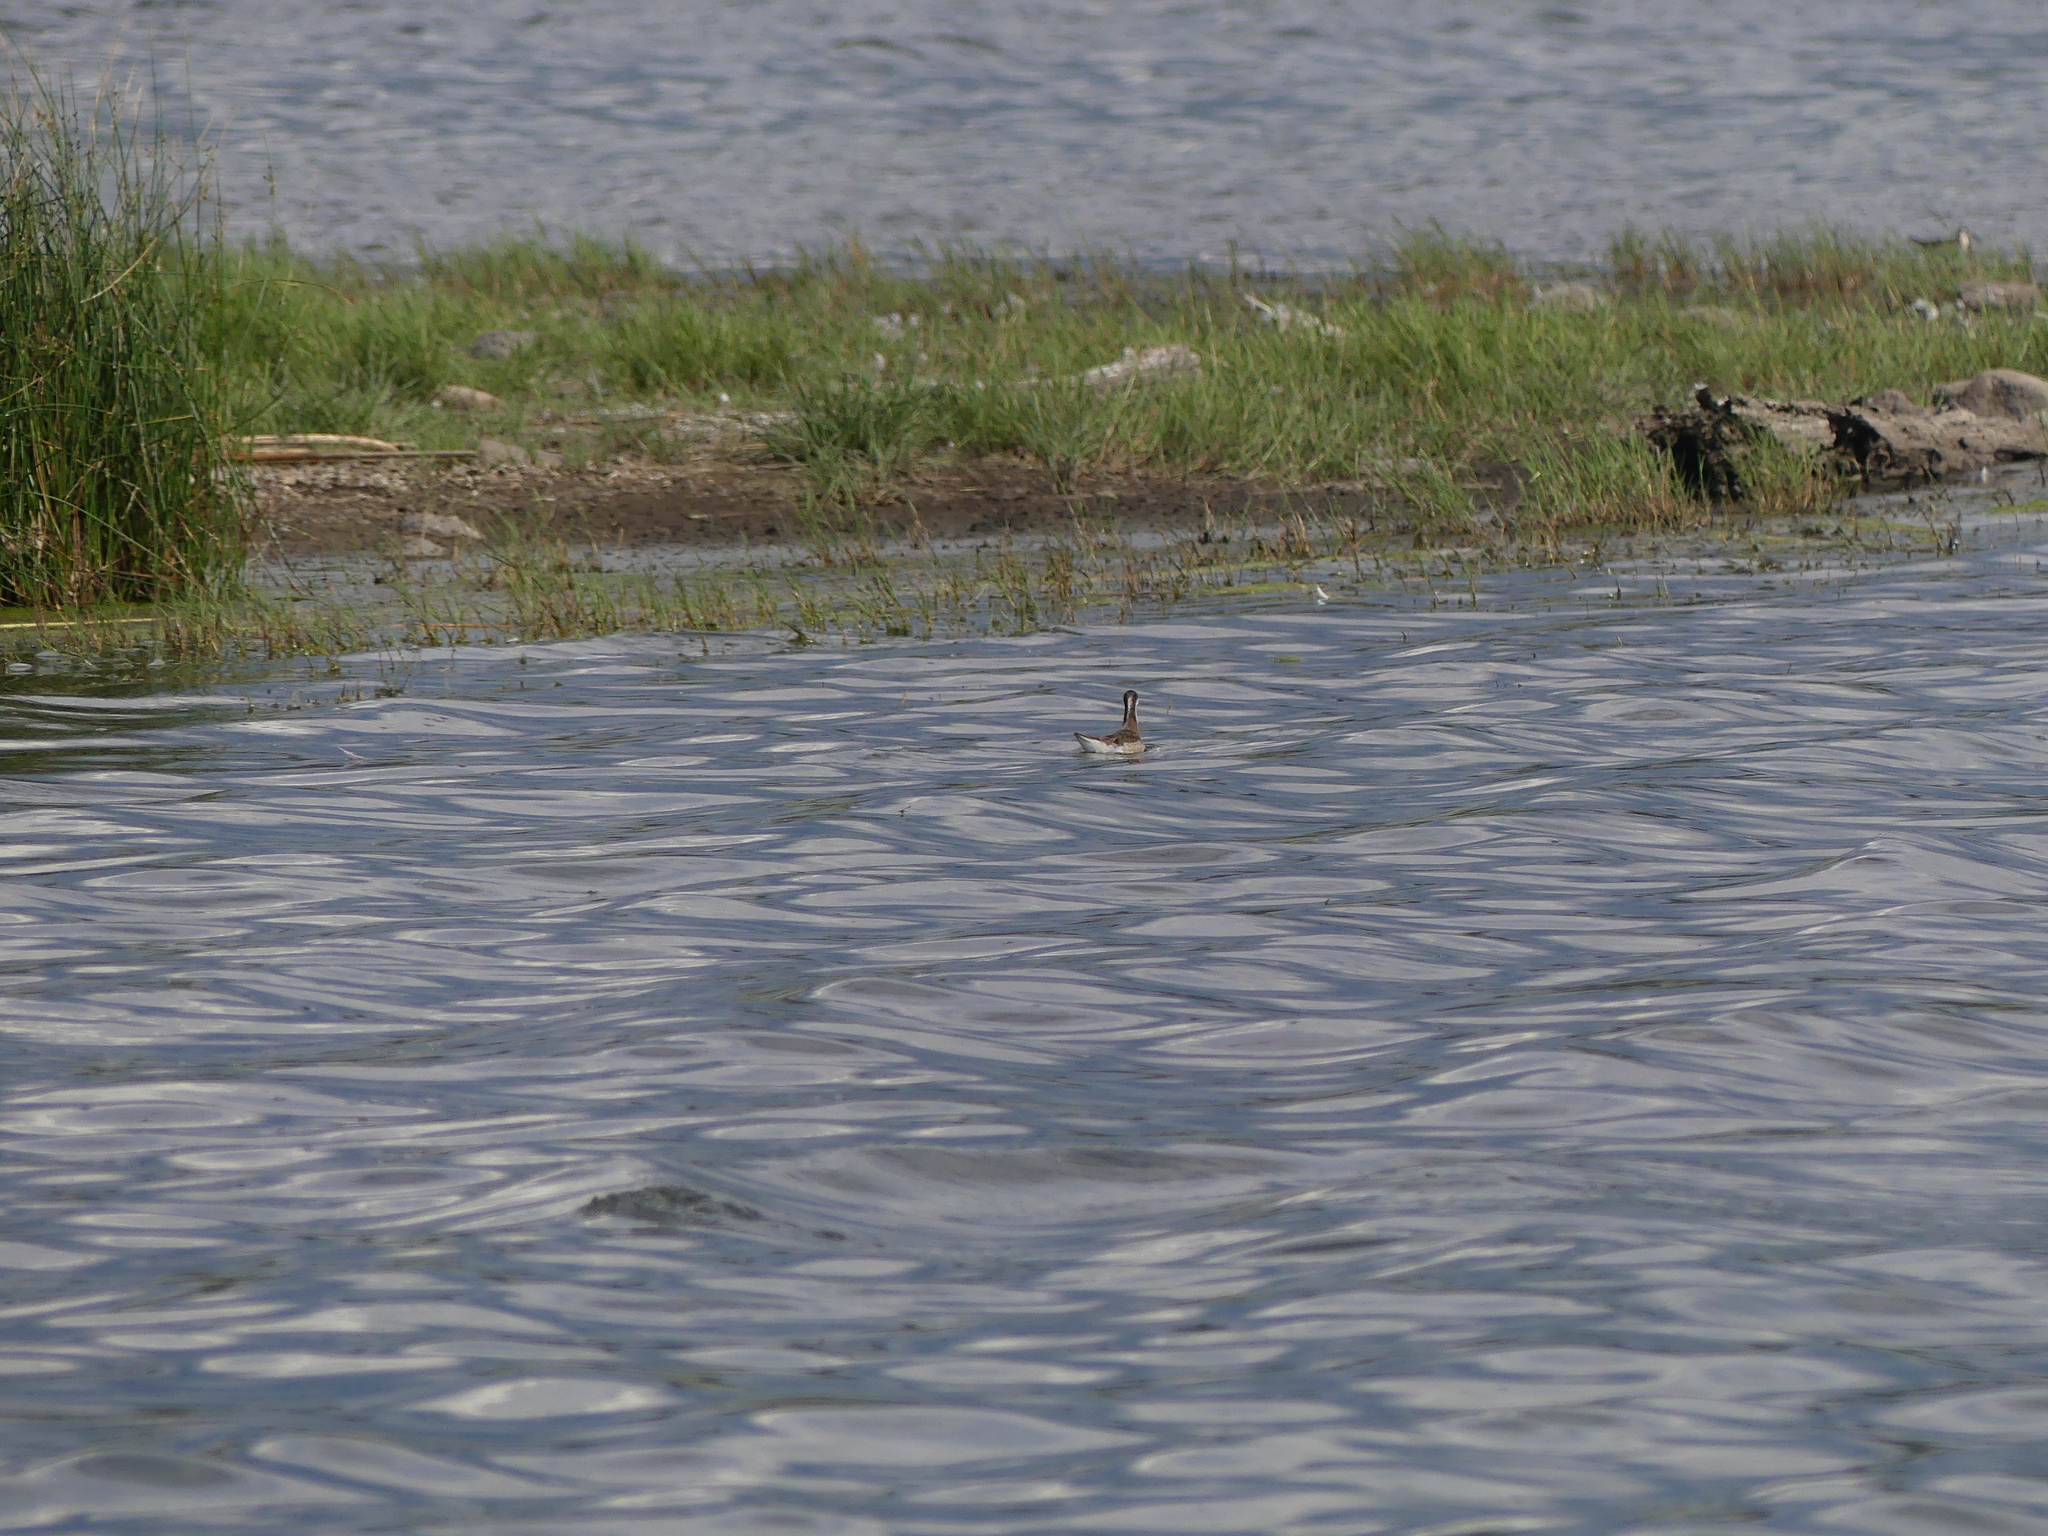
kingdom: Animalia
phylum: Chordata
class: Aves
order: Charadriiformes
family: Scolopacidae
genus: Phalaropus
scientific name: Phalaropus tricolor
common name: Wilson's phalarope
